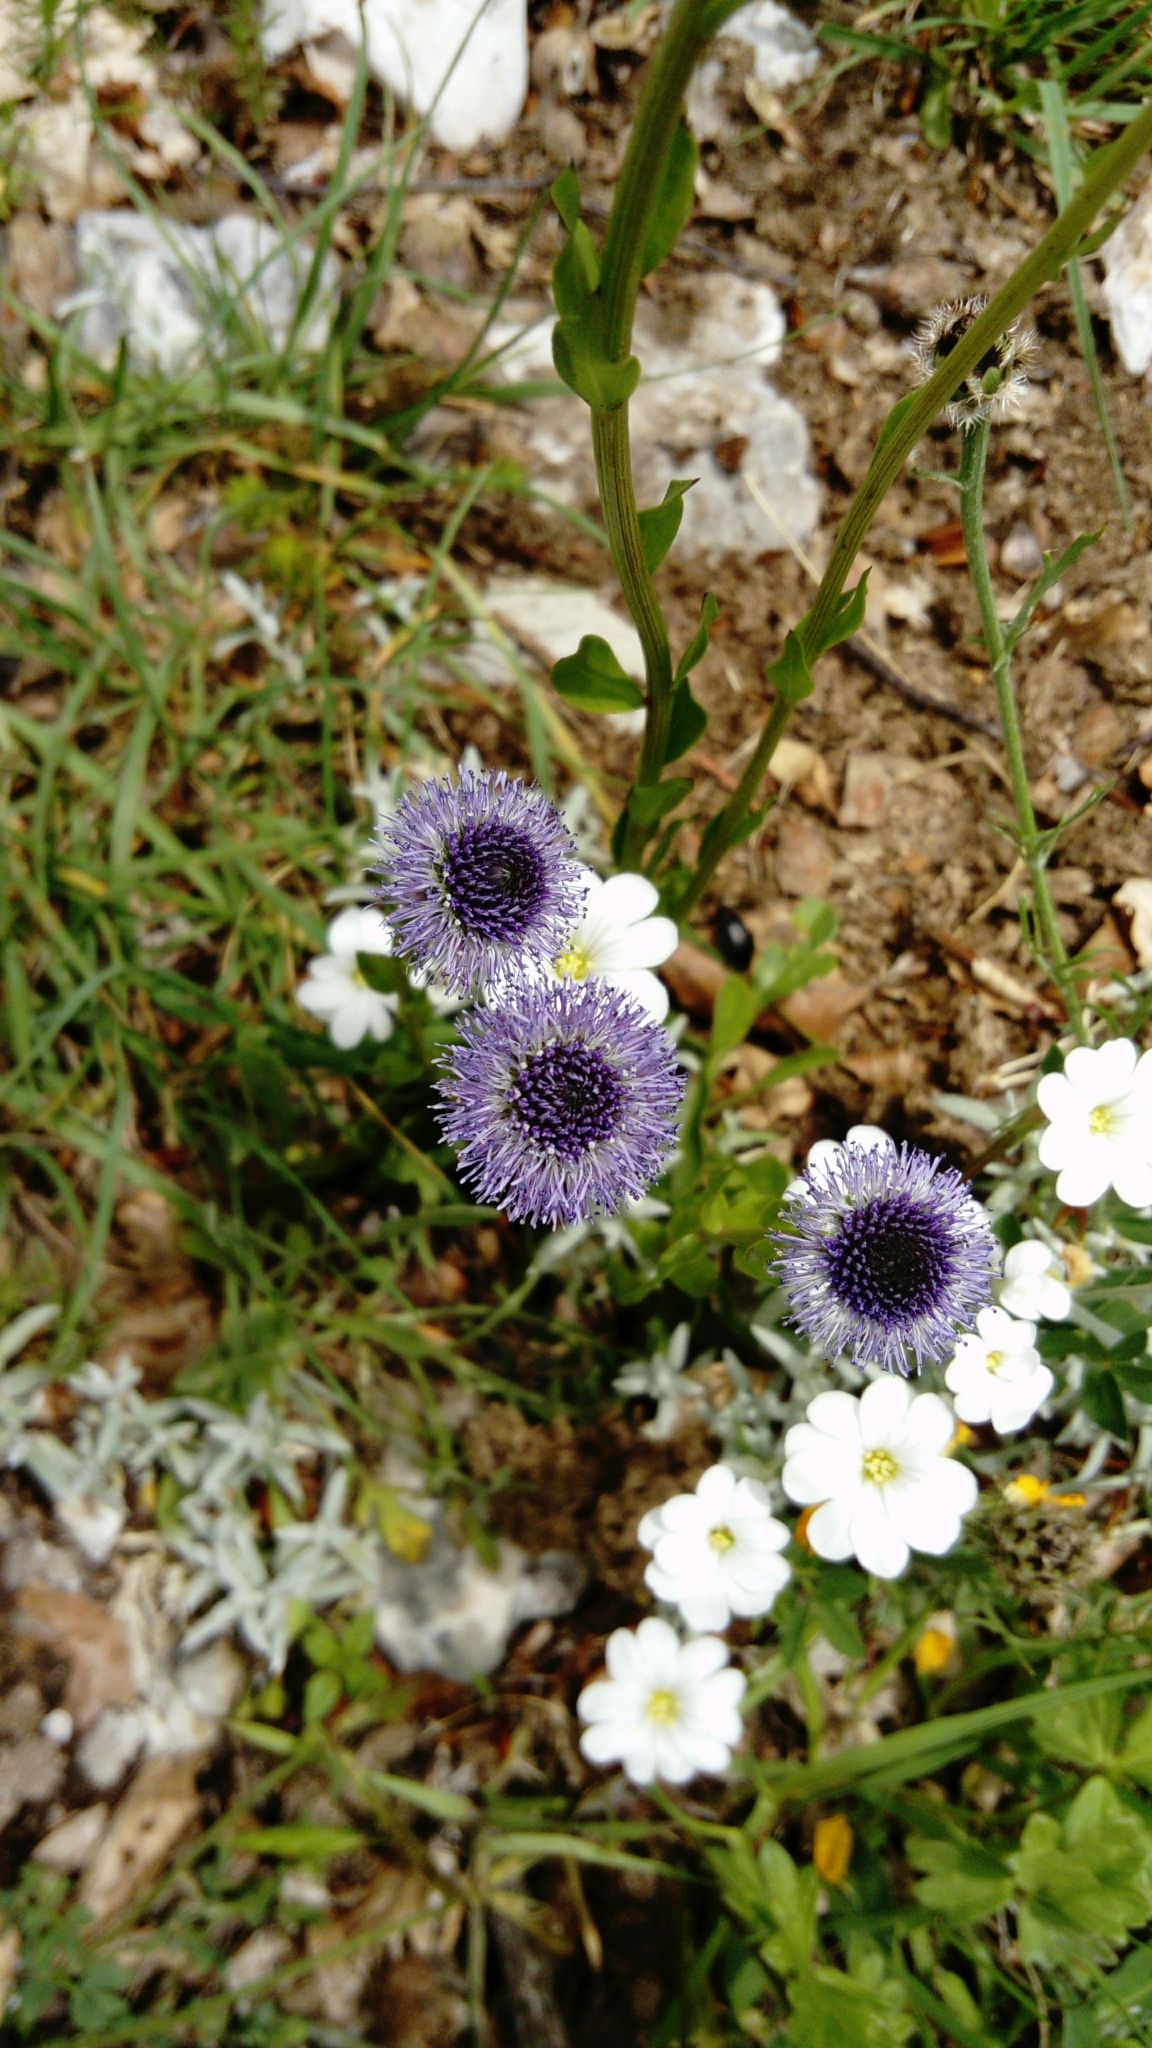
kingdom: Plantae
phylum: Tracheophyta
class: Magnoliopsida
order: Lamiales
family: Plantaginaceae
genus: Globularia
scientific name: Globularia bisnagarica
